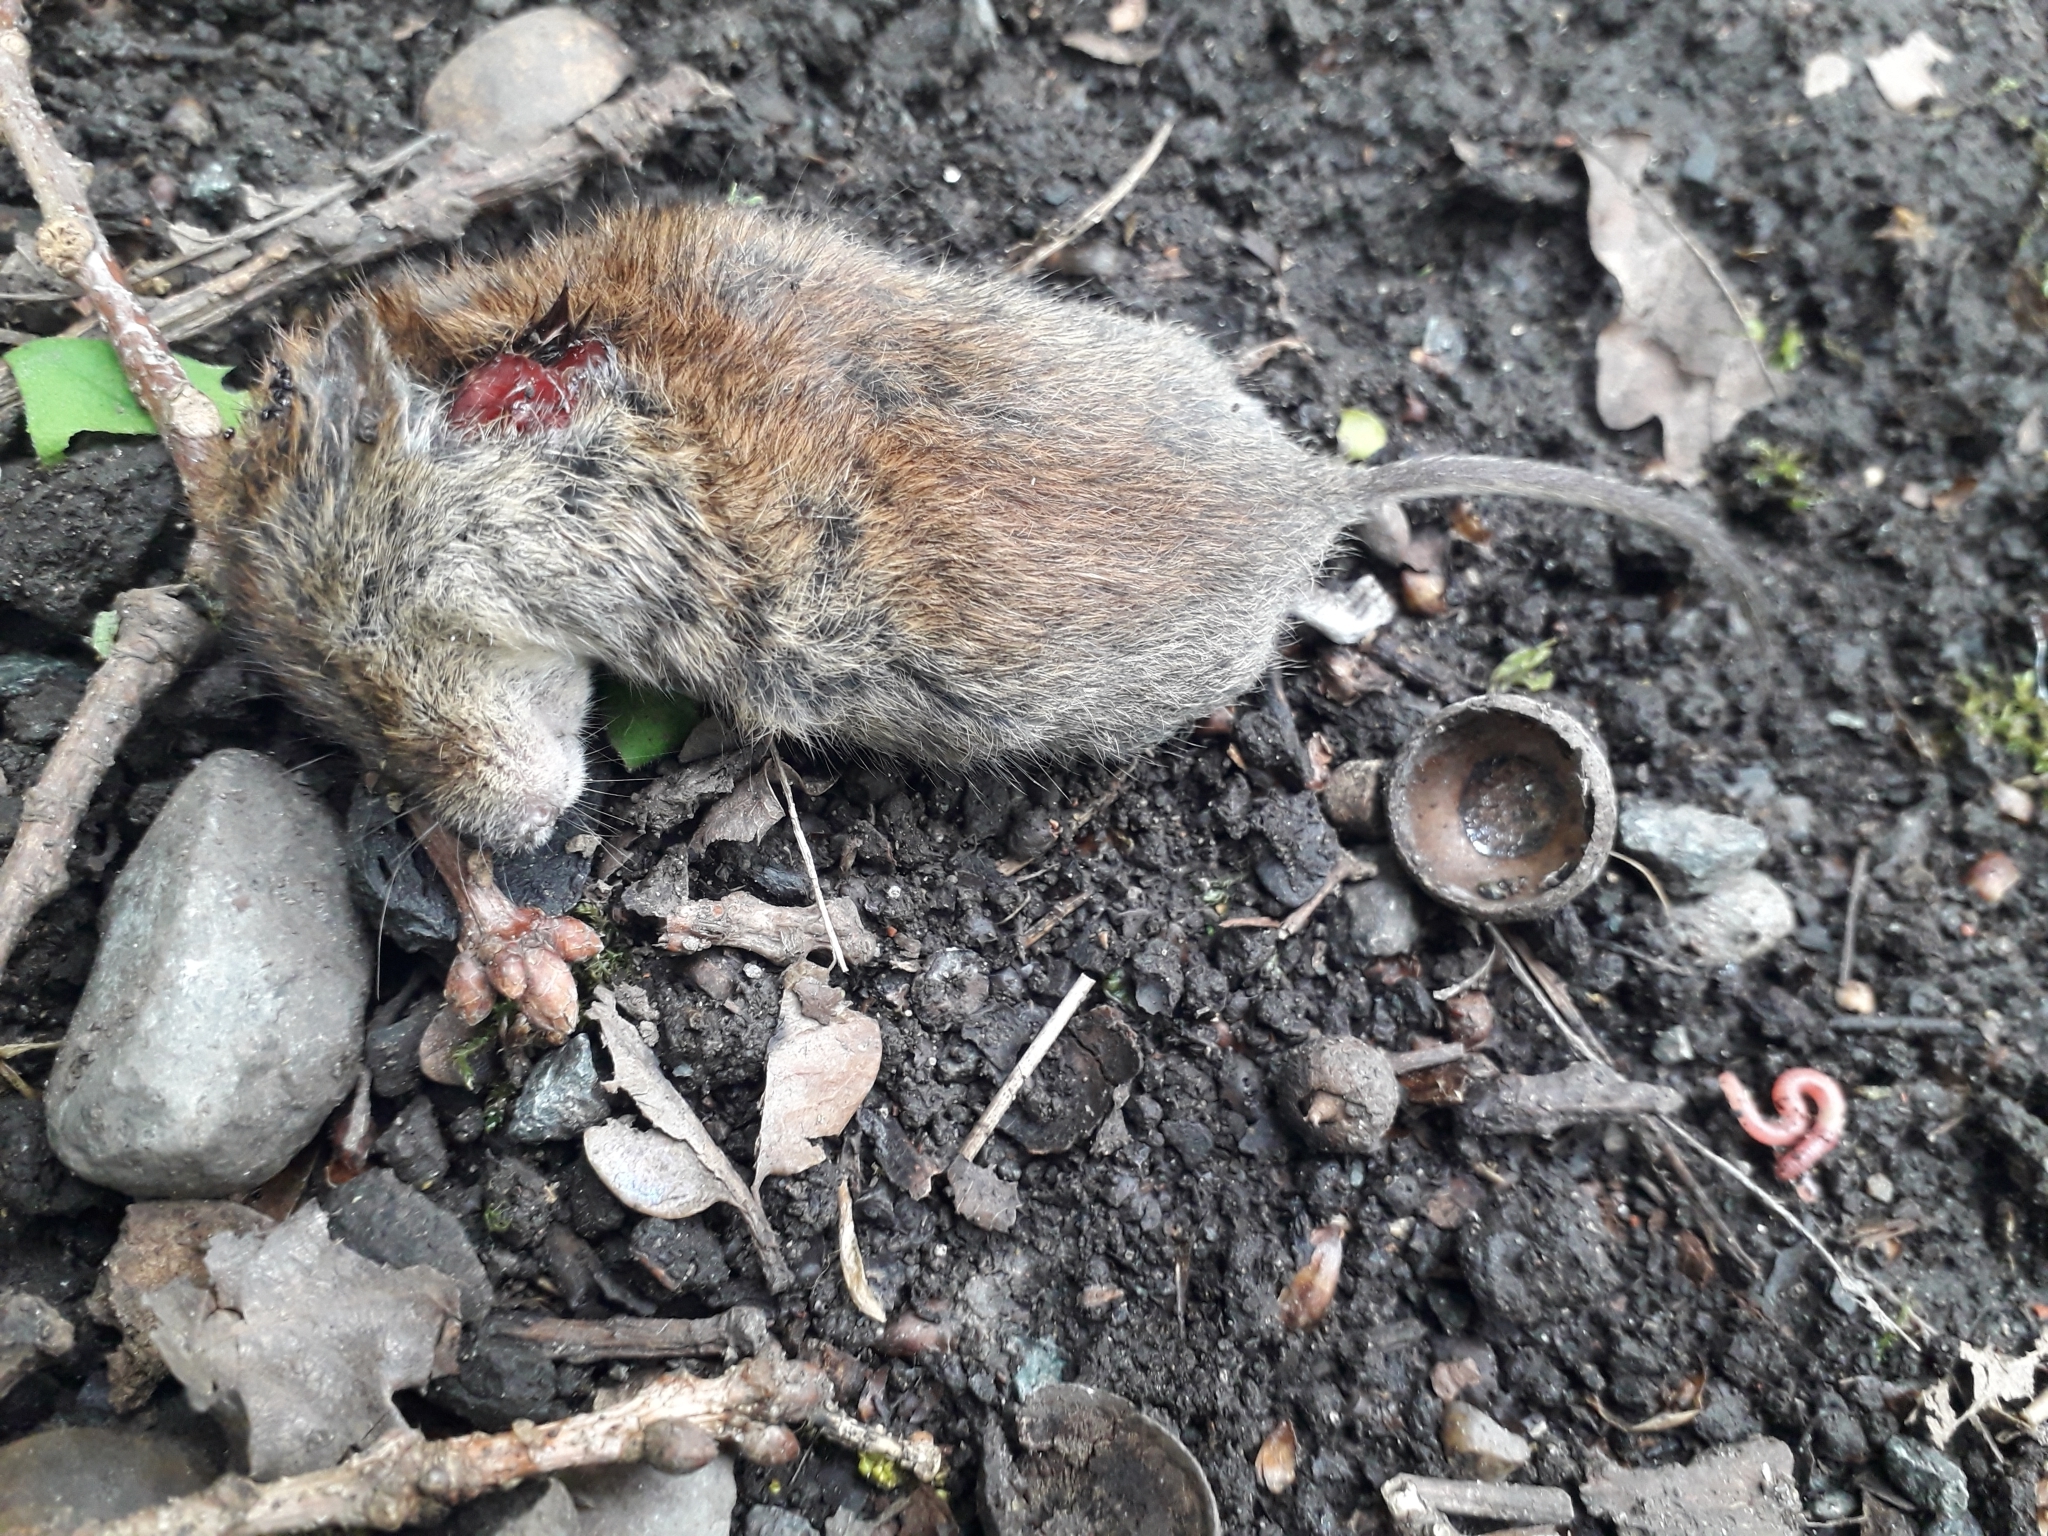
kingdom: Animalia
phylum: Chordata
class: Mammalia
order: Rodentia
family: Cricetidae
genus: Myodes
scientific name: Myodes glareolus
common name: Bank vole
